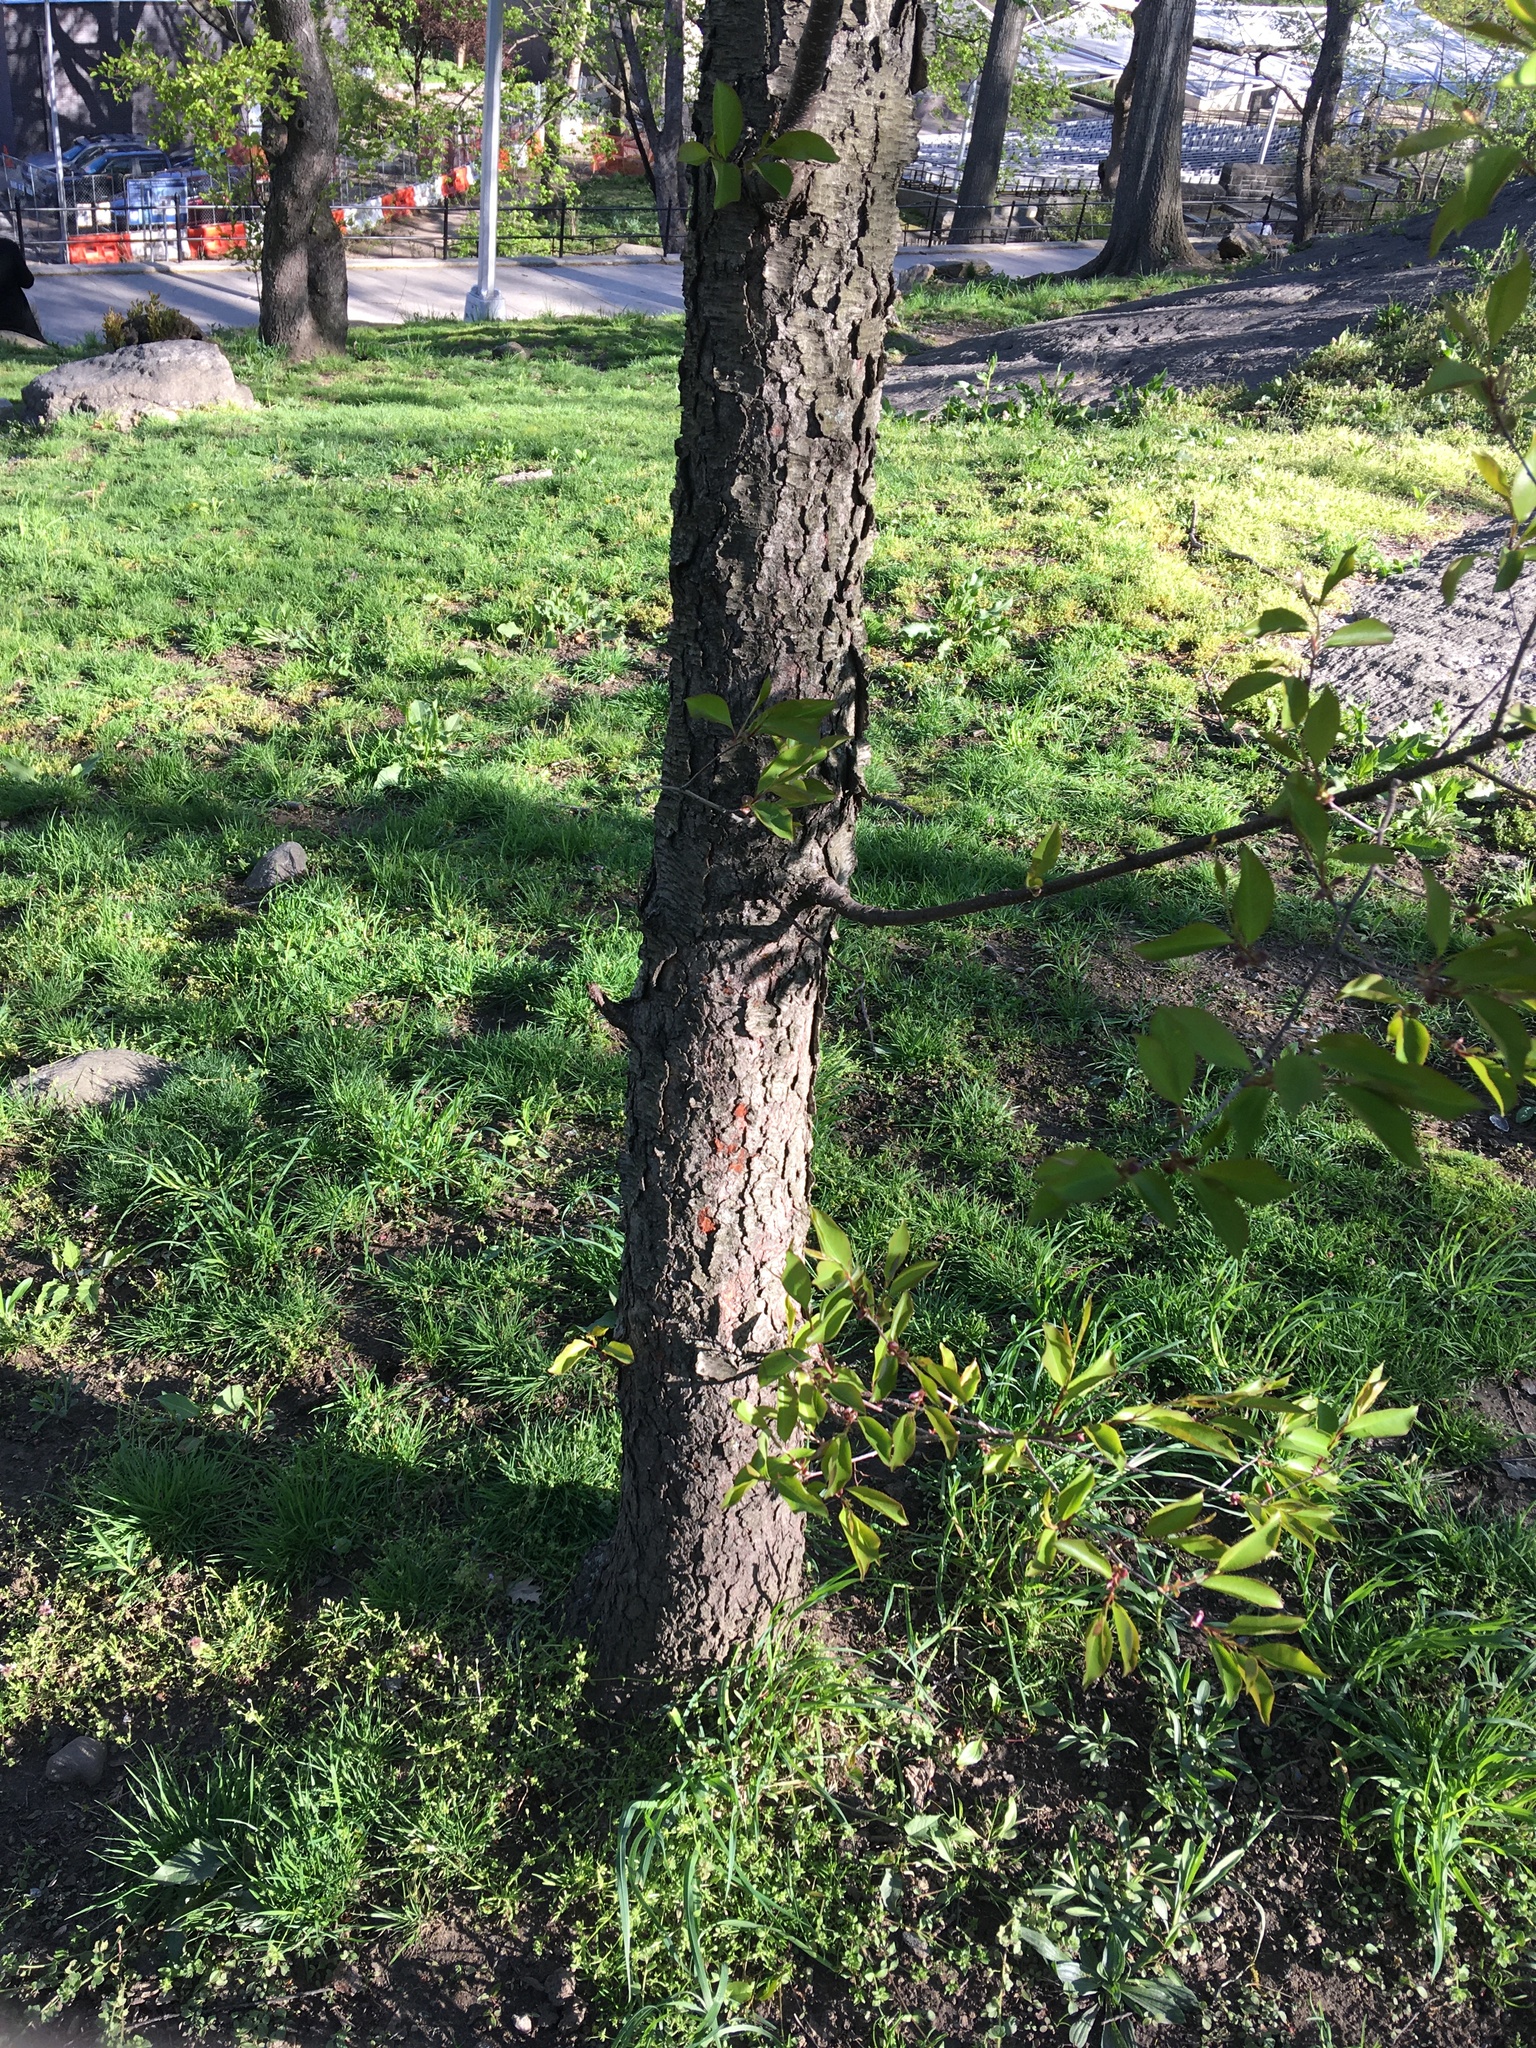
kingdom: Plantae
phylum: Tracheophyta
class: Magnoliopsida
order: Rosales
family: Rosaceae
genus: Prunus
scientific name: Prunus serotina
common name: Black cherry
